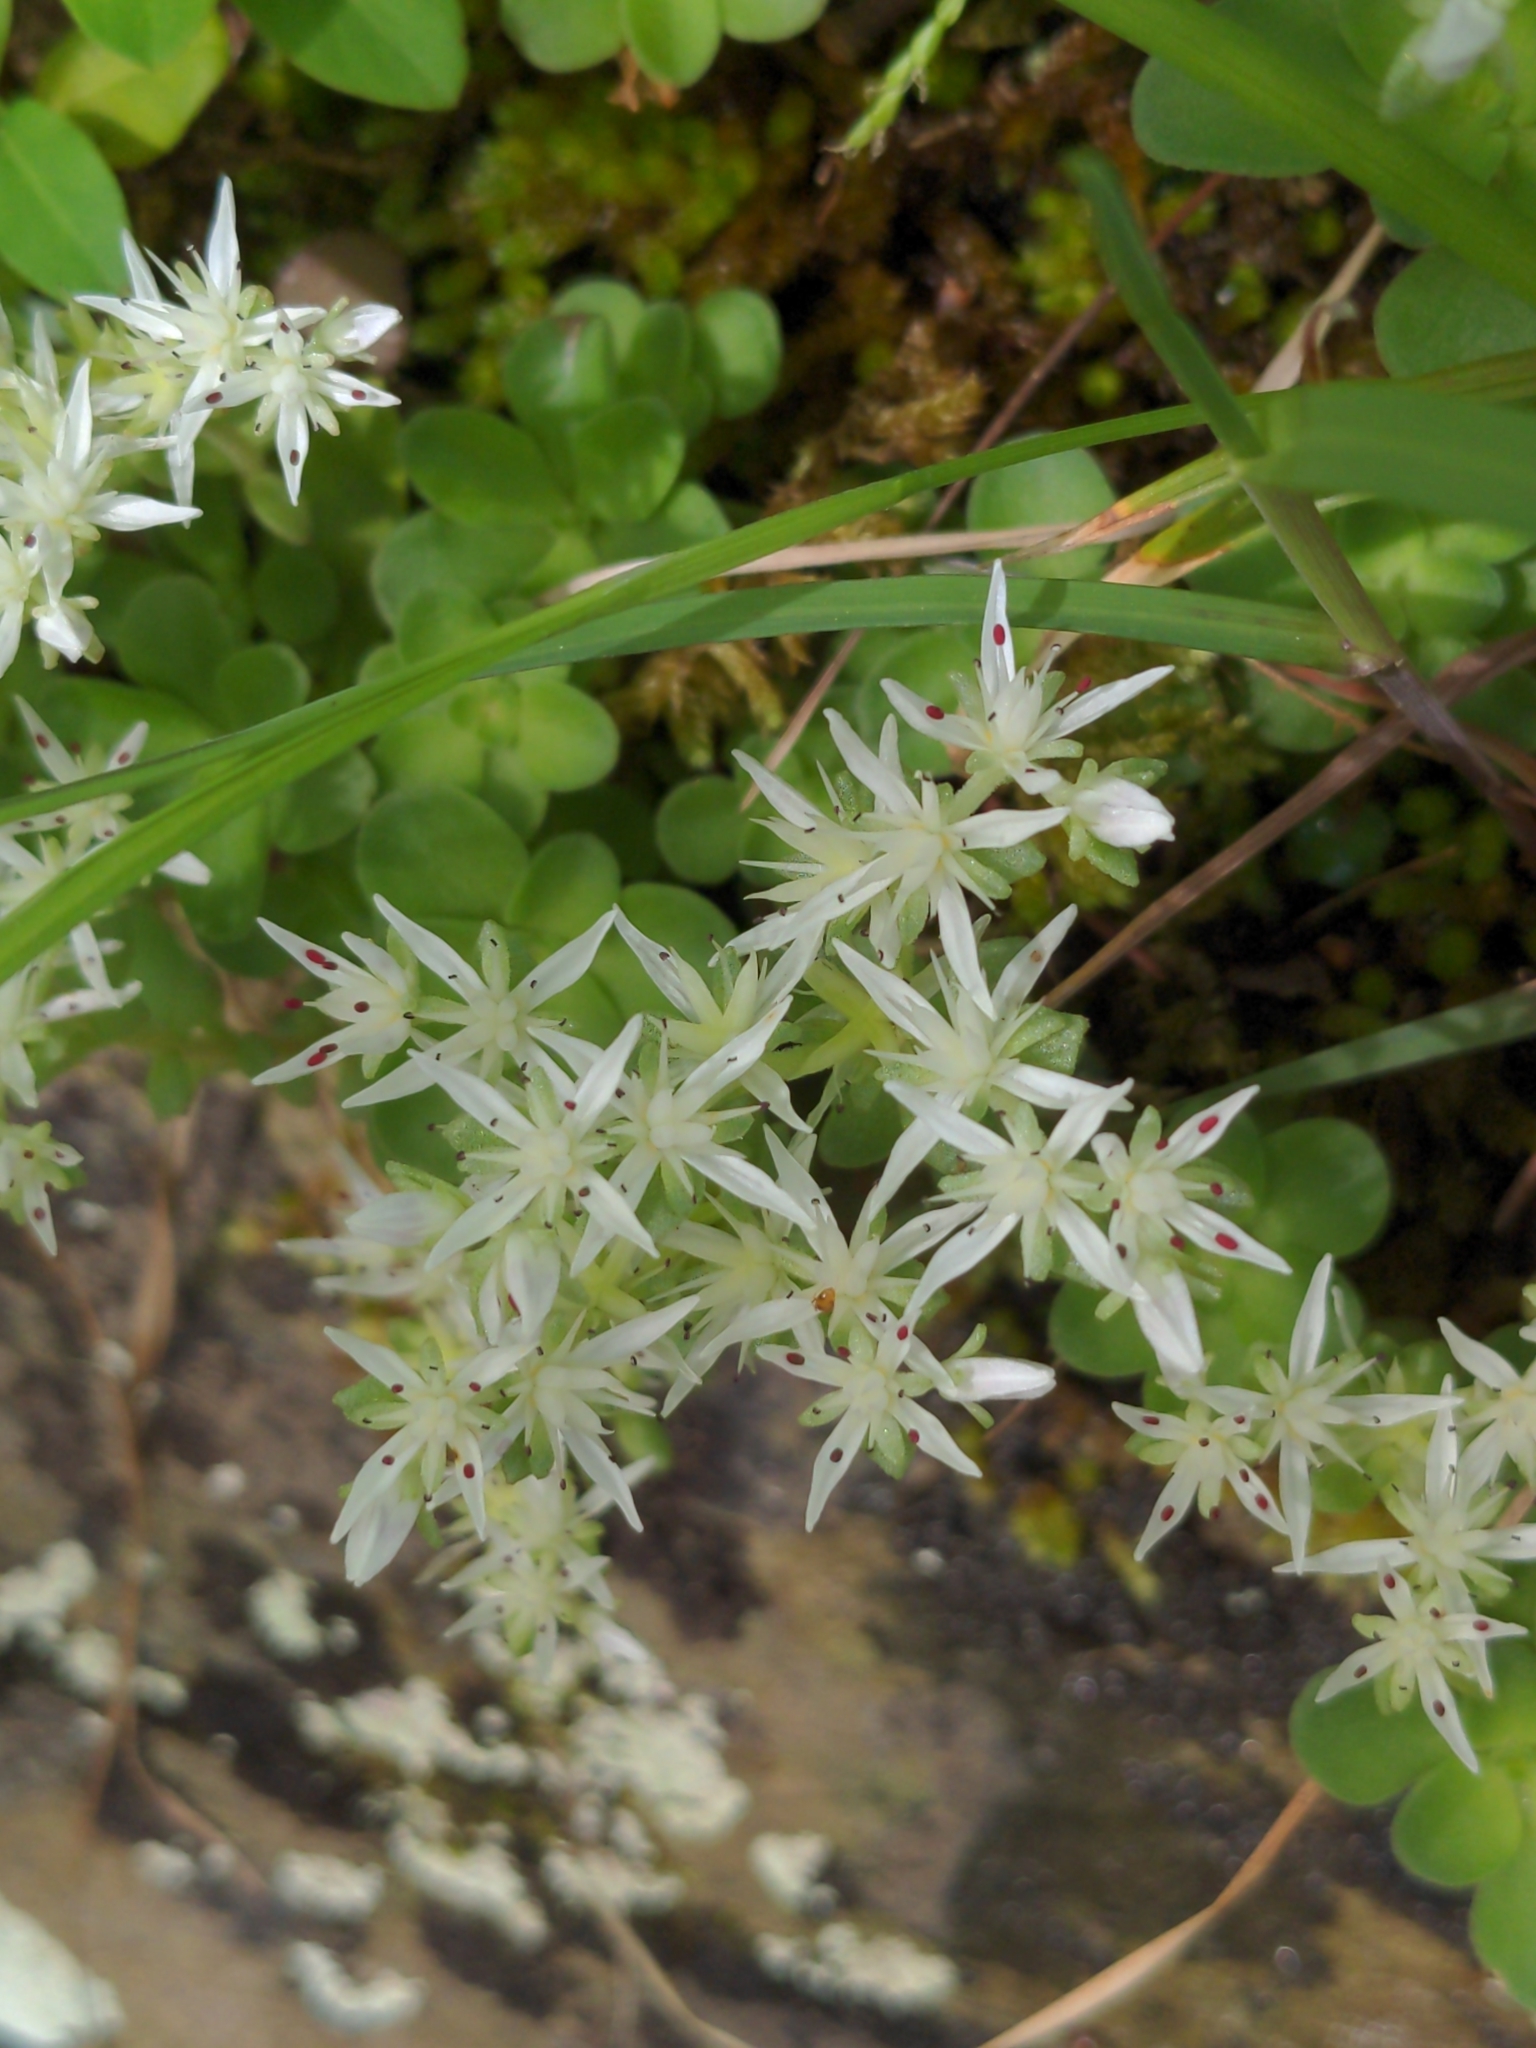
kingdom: Plantae
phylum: Tracheophyta
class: Magnoliopsida
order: Saxifragales
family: Crassulaceae
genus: Sedum
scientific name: Sedum ternatum
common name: Wild stonecrop
